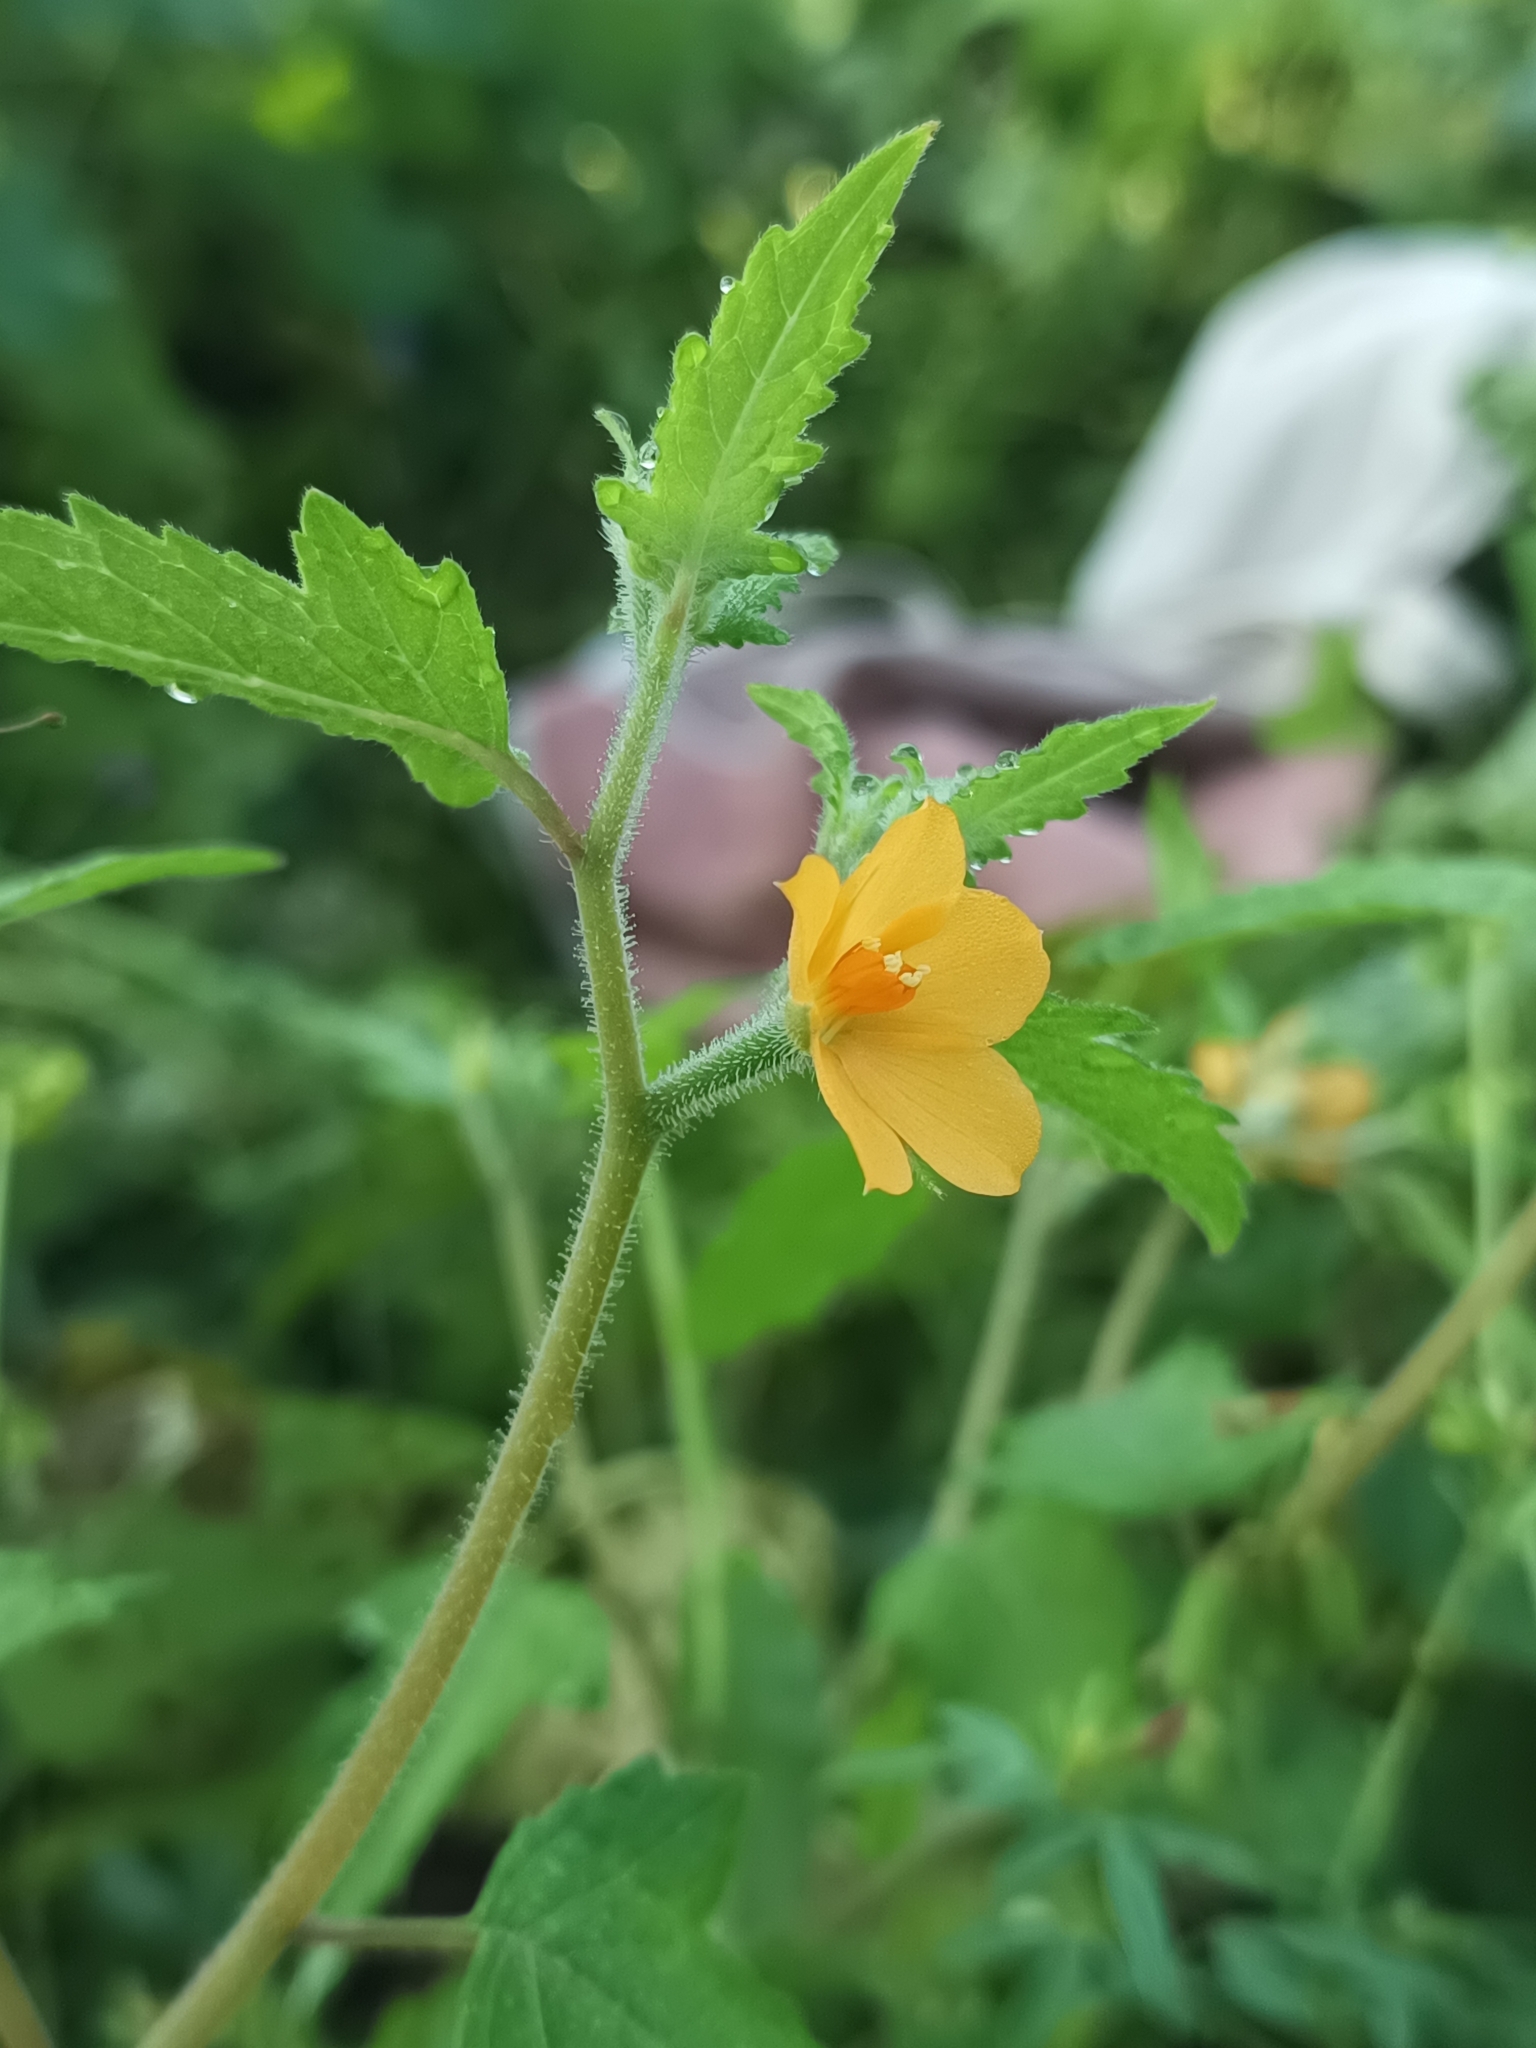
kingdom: Plantae
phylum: Tracheophyta
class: Magnoliopsida
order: Cornales
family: Loasaceae
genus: Mentzelia
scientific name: Mentzelia aspera
